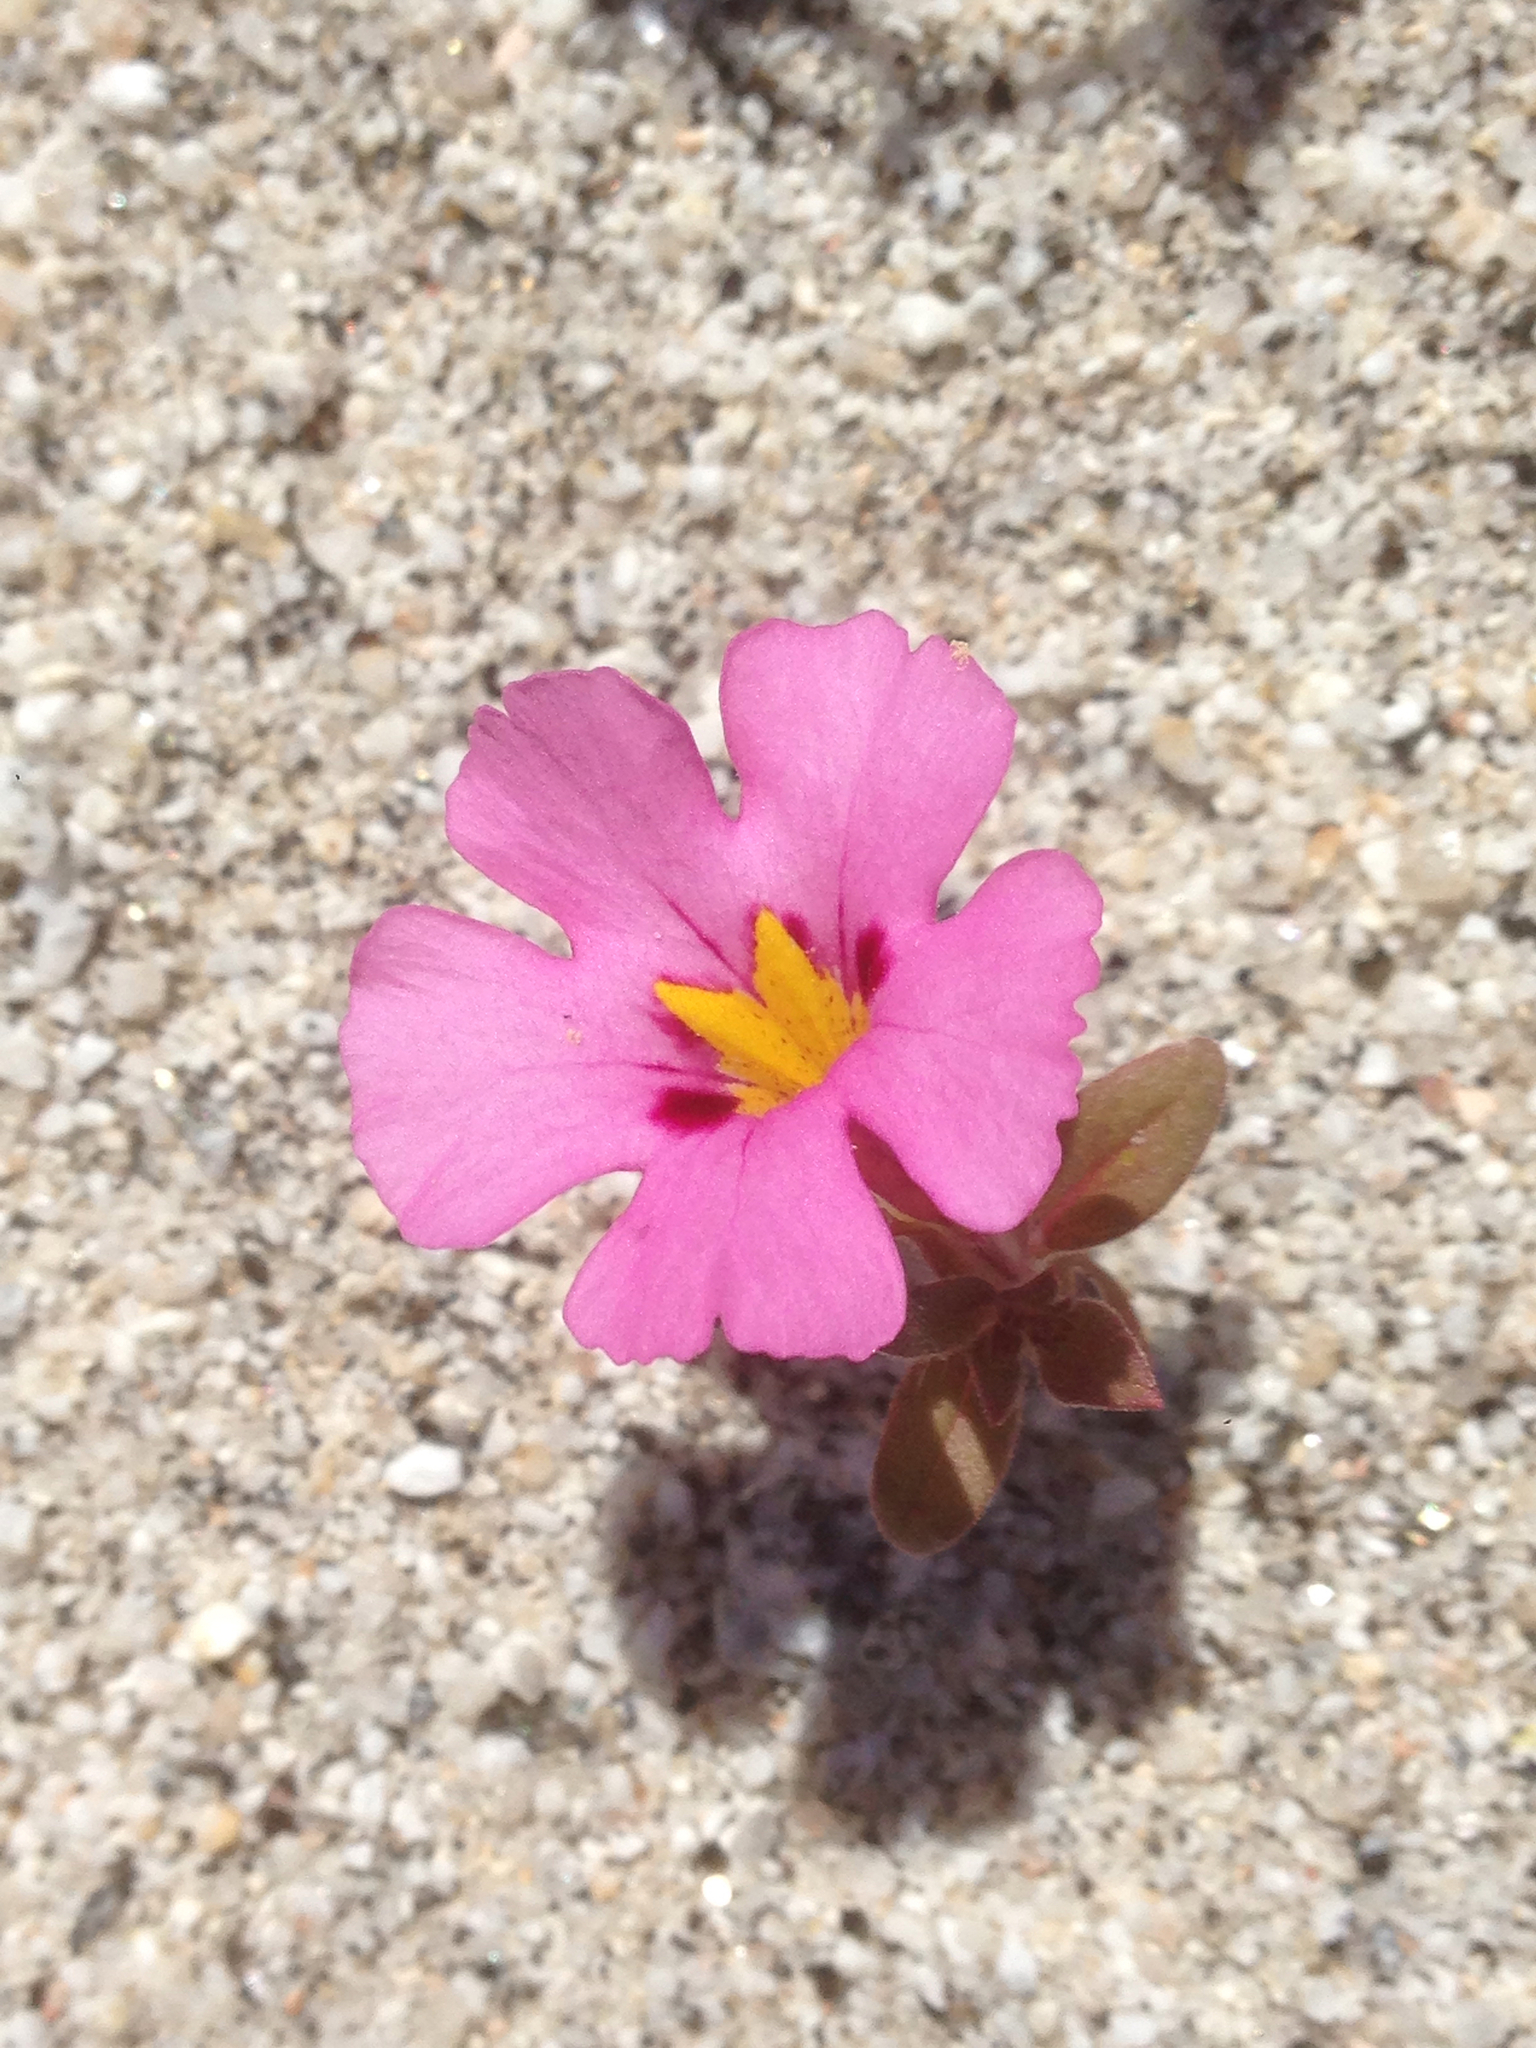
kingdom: Plantae
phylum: Tracheophyta
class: Magnoliopsida
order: Lamiales
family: Phrymaceae
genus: Diplacus
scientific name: Diplacus bigelovii
